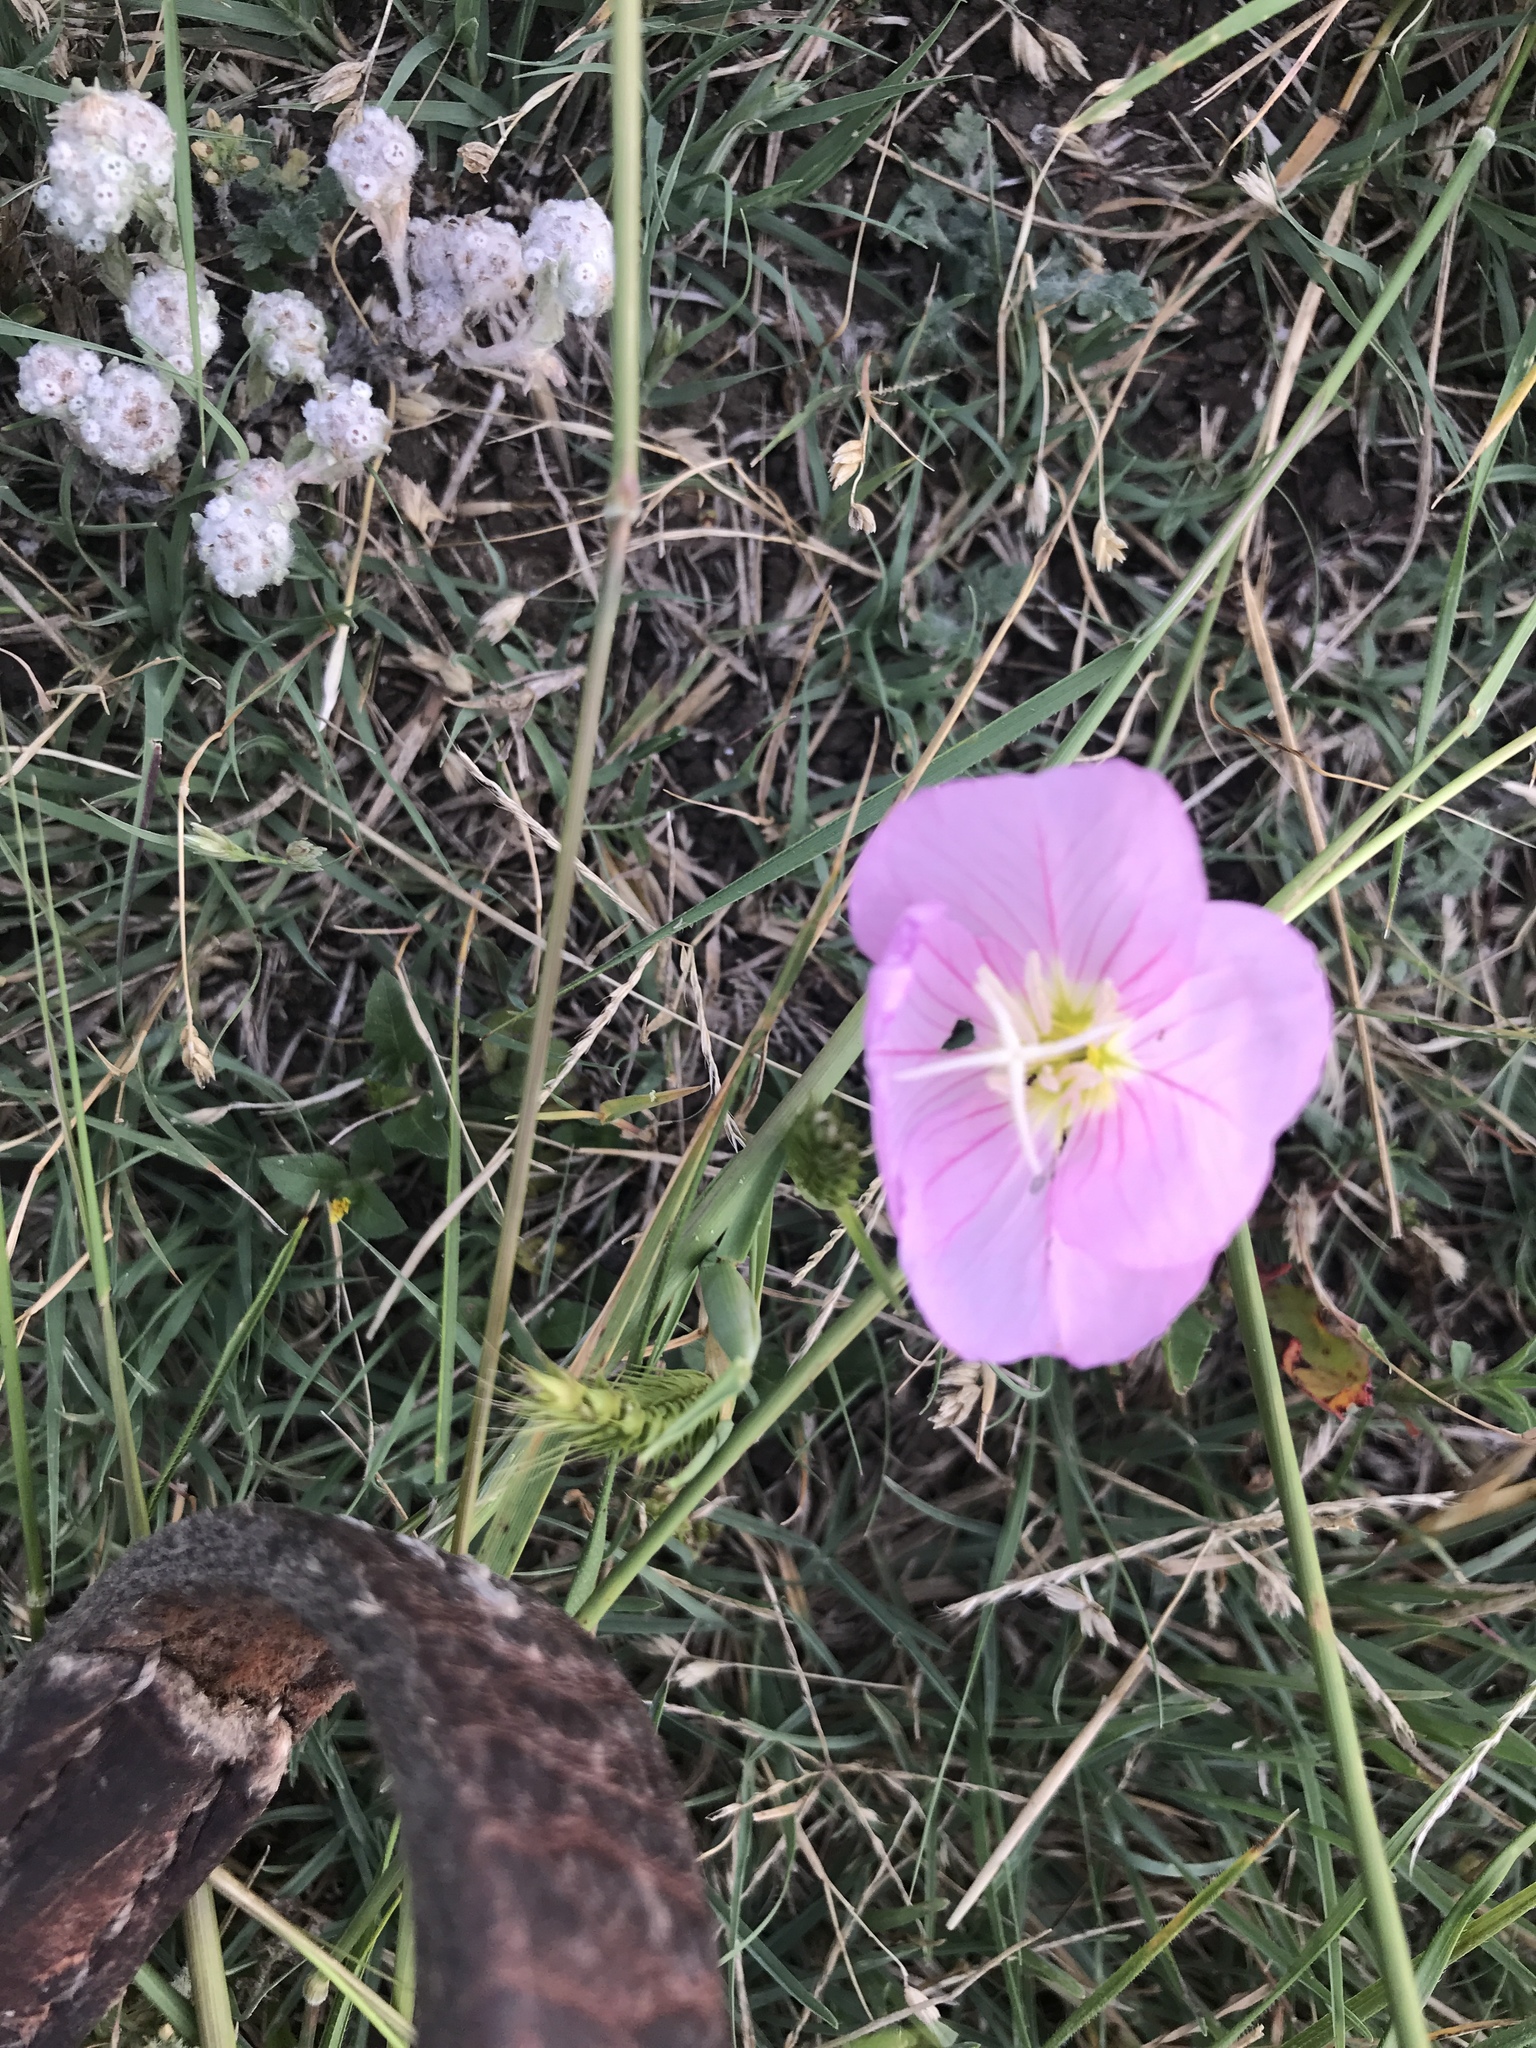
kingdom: Plantae
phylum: Tracheophyta
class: Magnoliopsida
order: Myrtales
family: Onagraceae
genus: Oenothera
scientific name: Oenothera speciosa
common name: White evening-primrose
